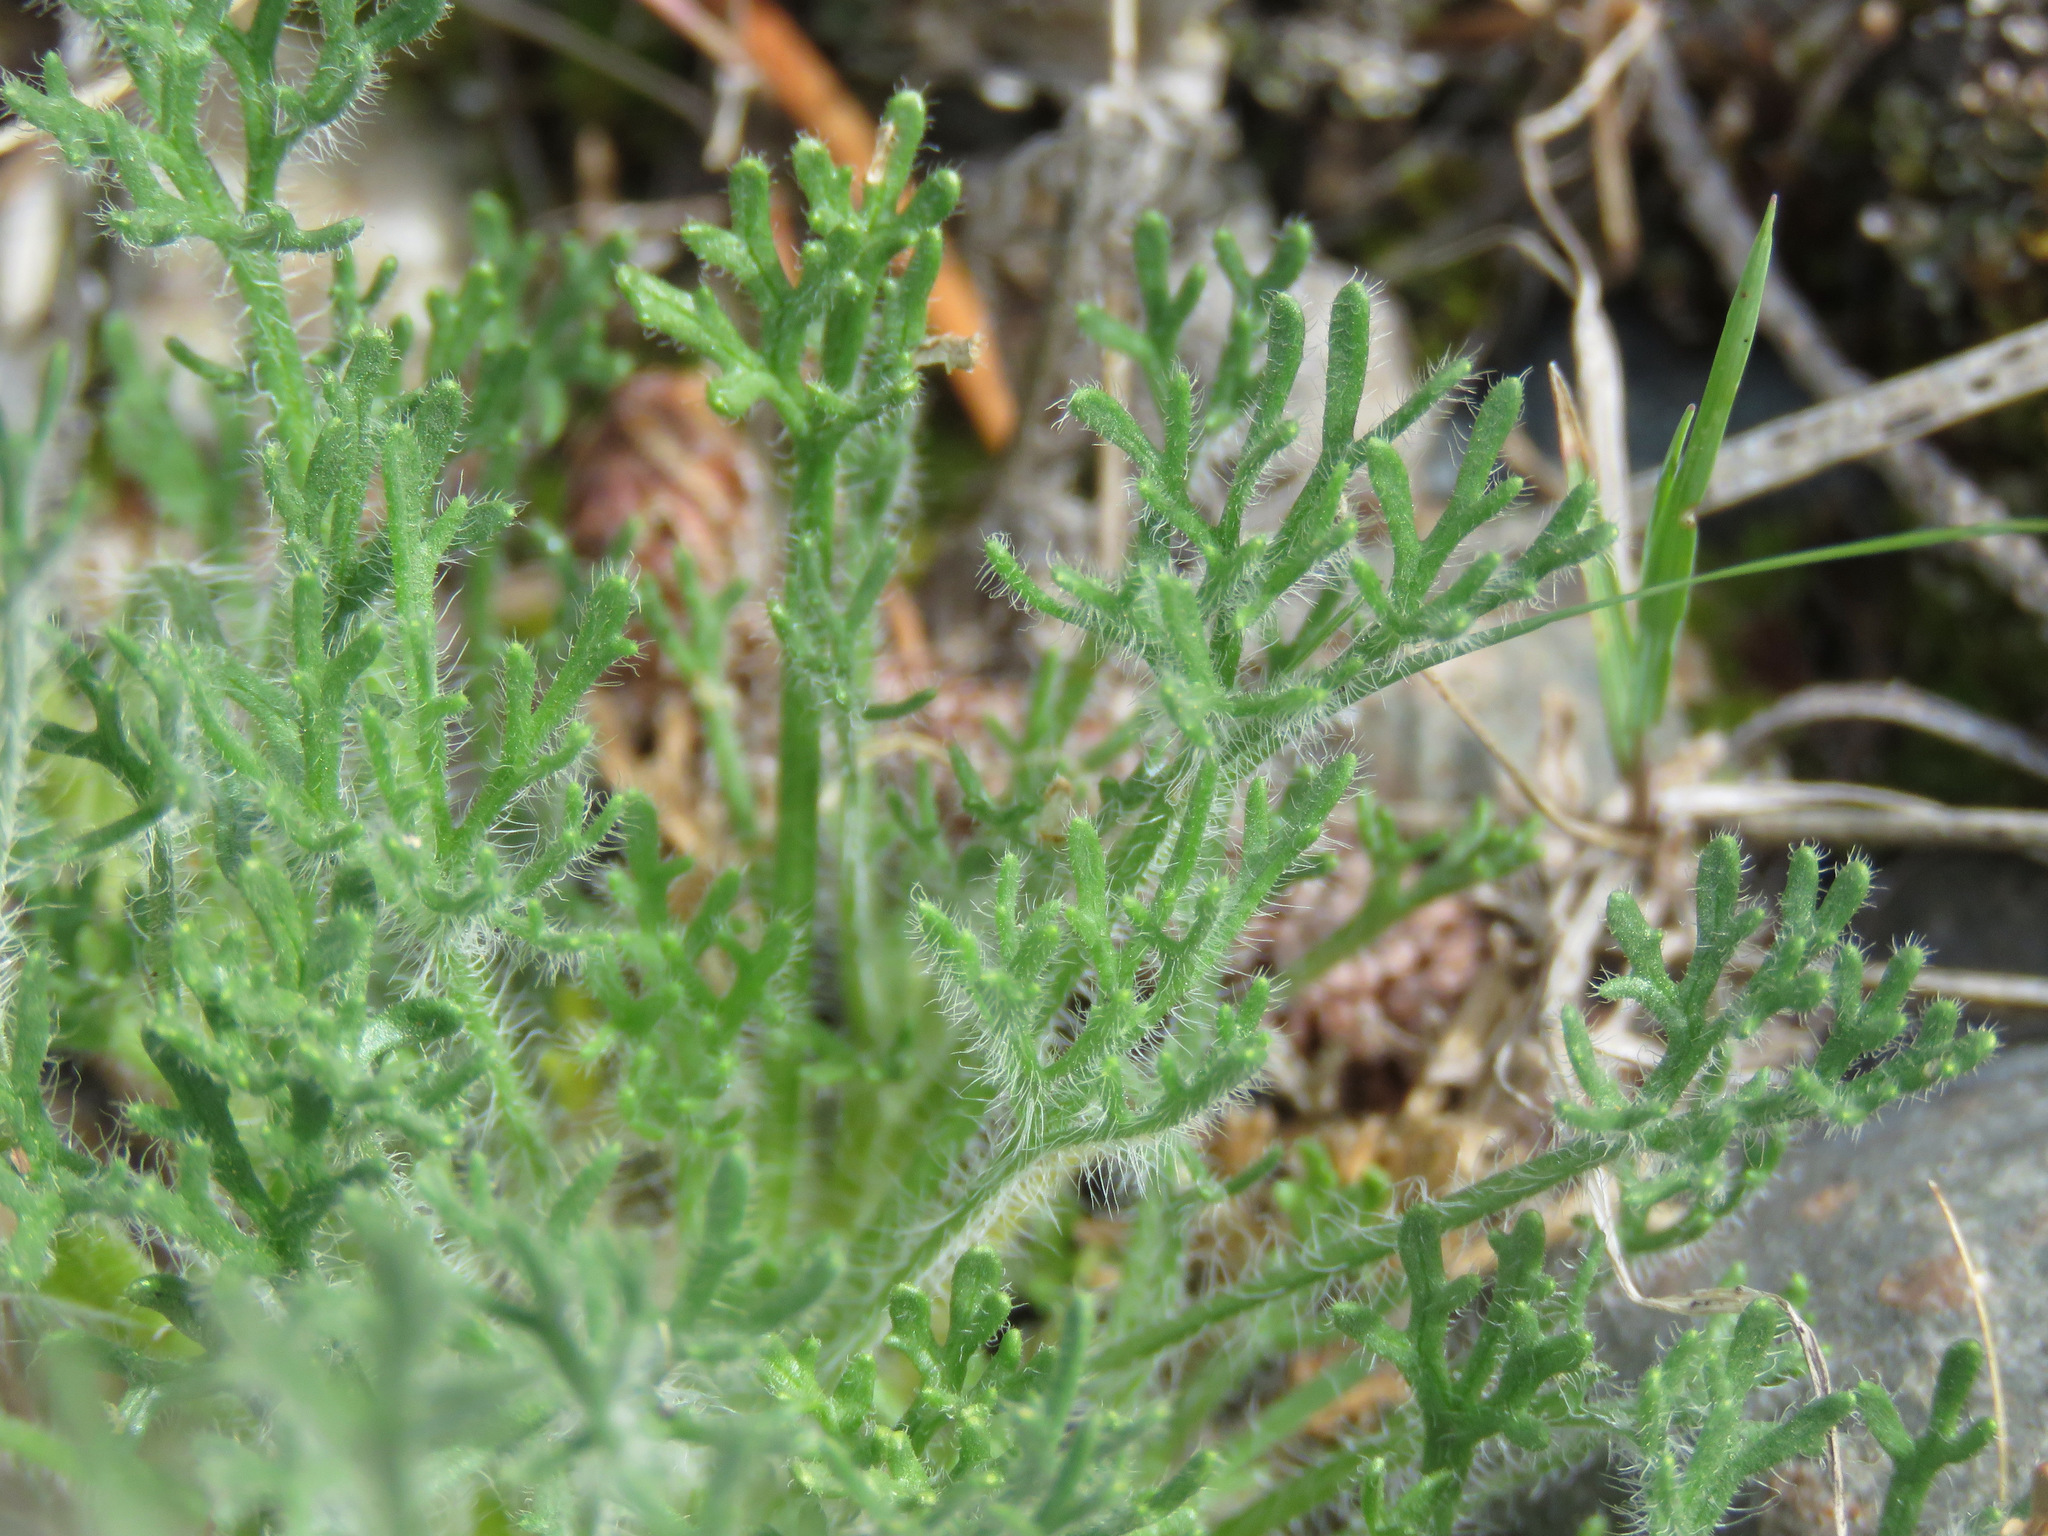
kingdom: Plantae
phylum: Tracheophyta
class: Magnoliopsida
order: Asterales
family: Asteraceae
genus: Erigeron
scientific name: Erigeron compositus
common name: Dwarf mountain fleabane
